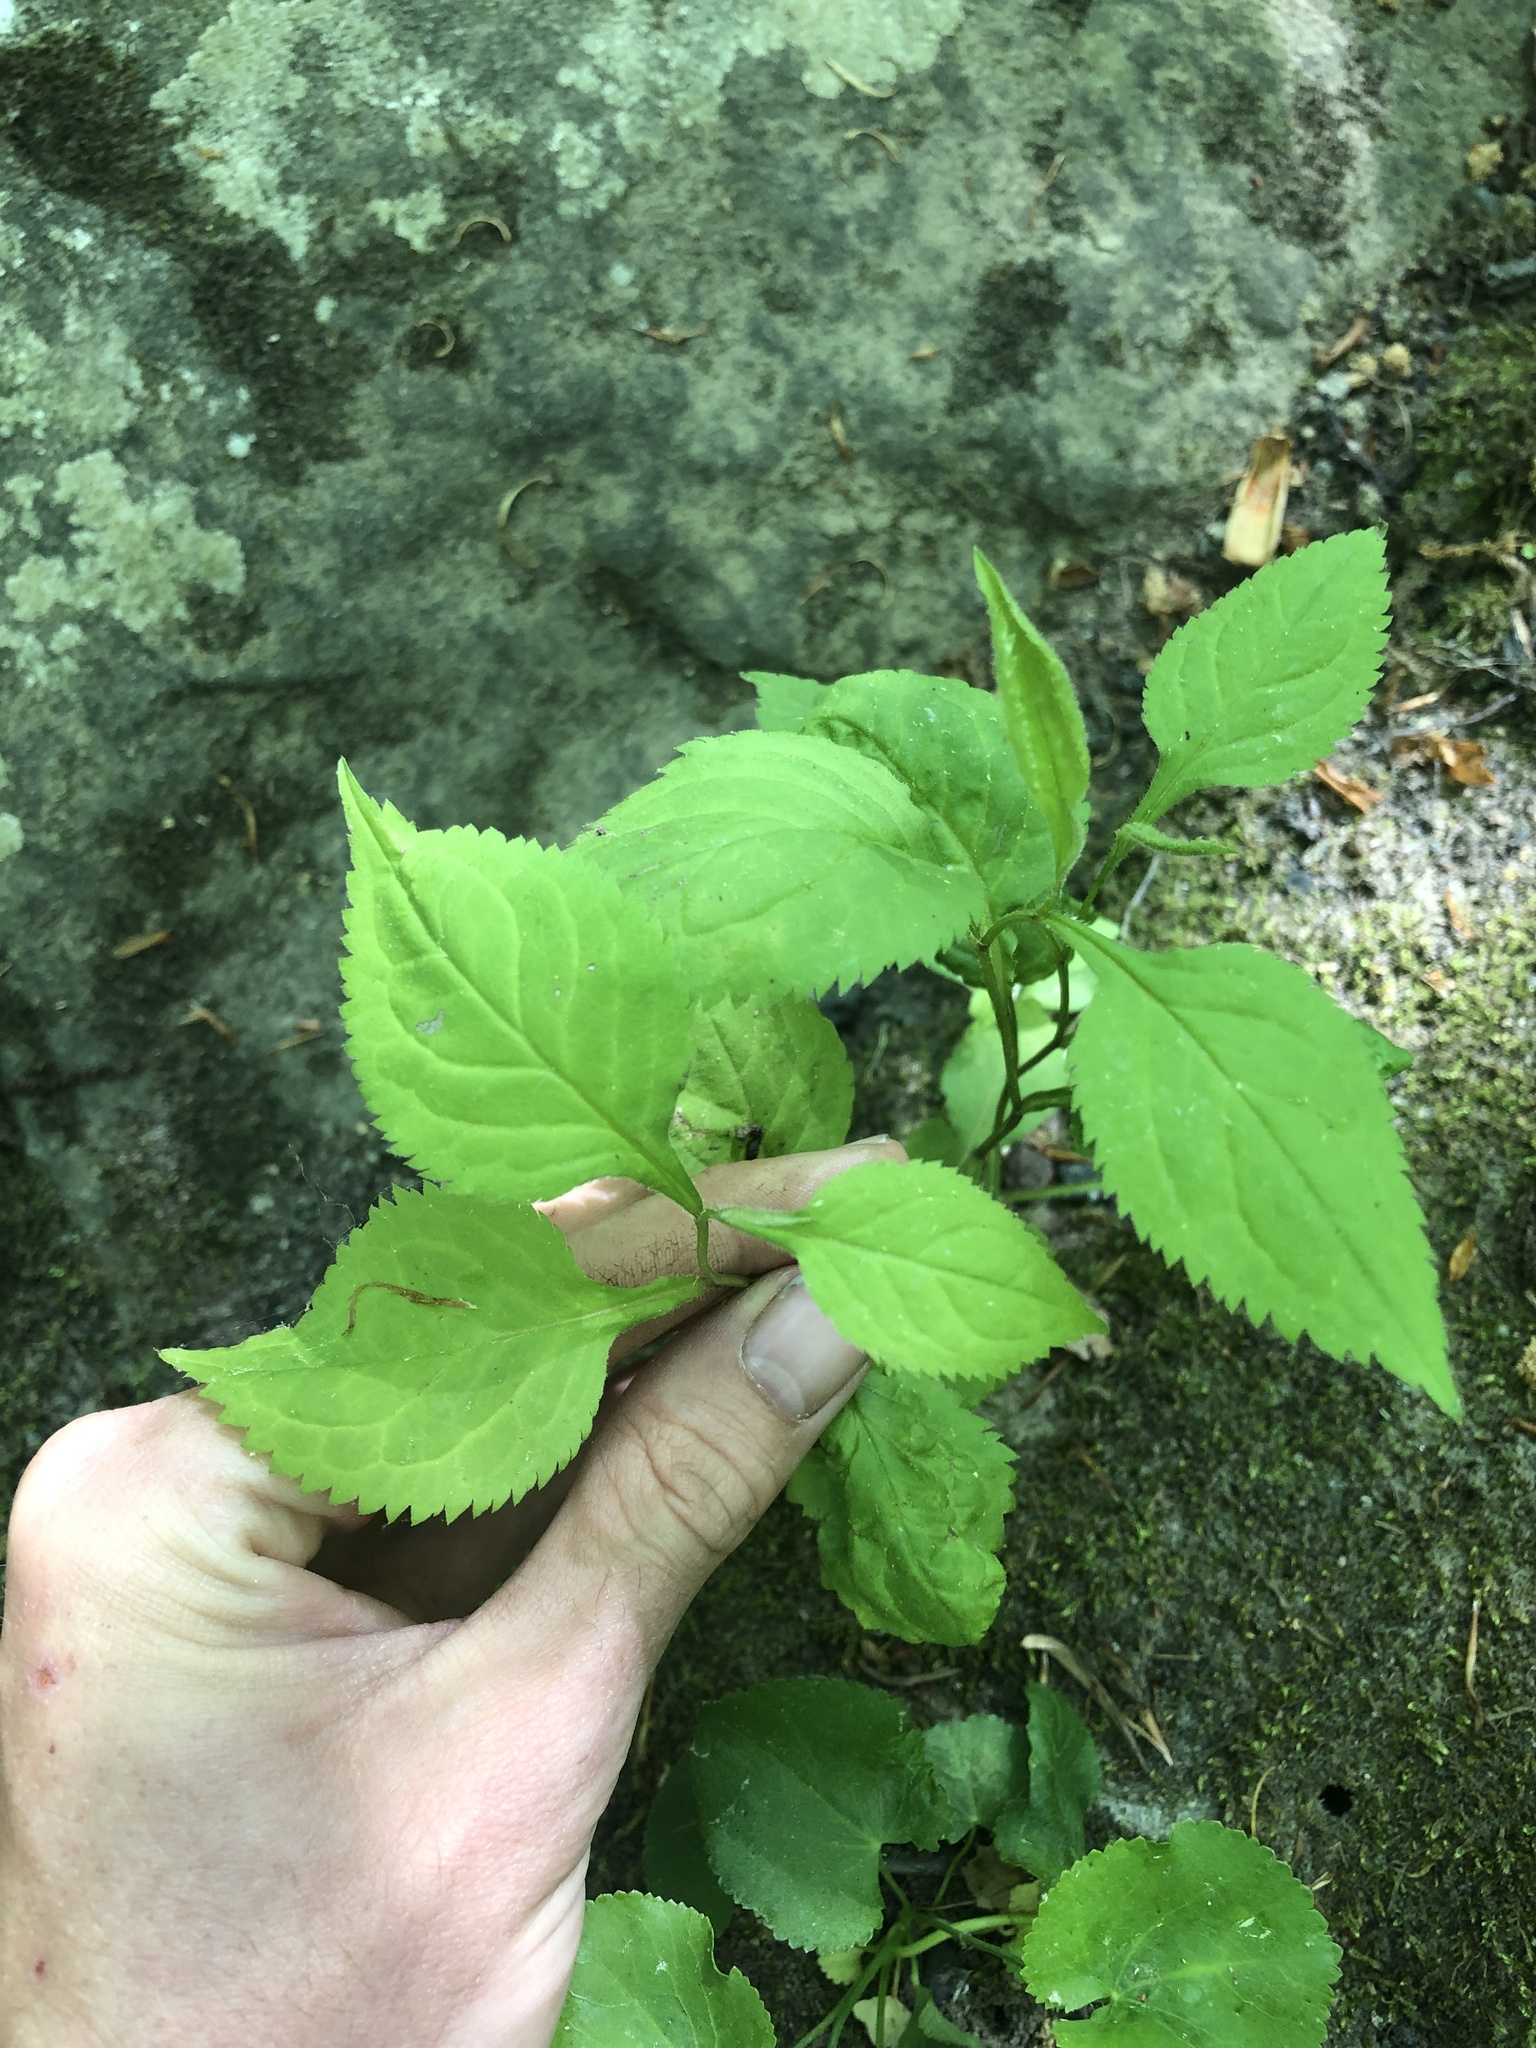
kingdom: Plantae
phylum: Tracheophyta
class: Magnoliopsida
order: Asterales
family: Asteraceae
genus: Solidago
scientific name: Solidago flexicaulis
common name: Zig-zag goldenrod
